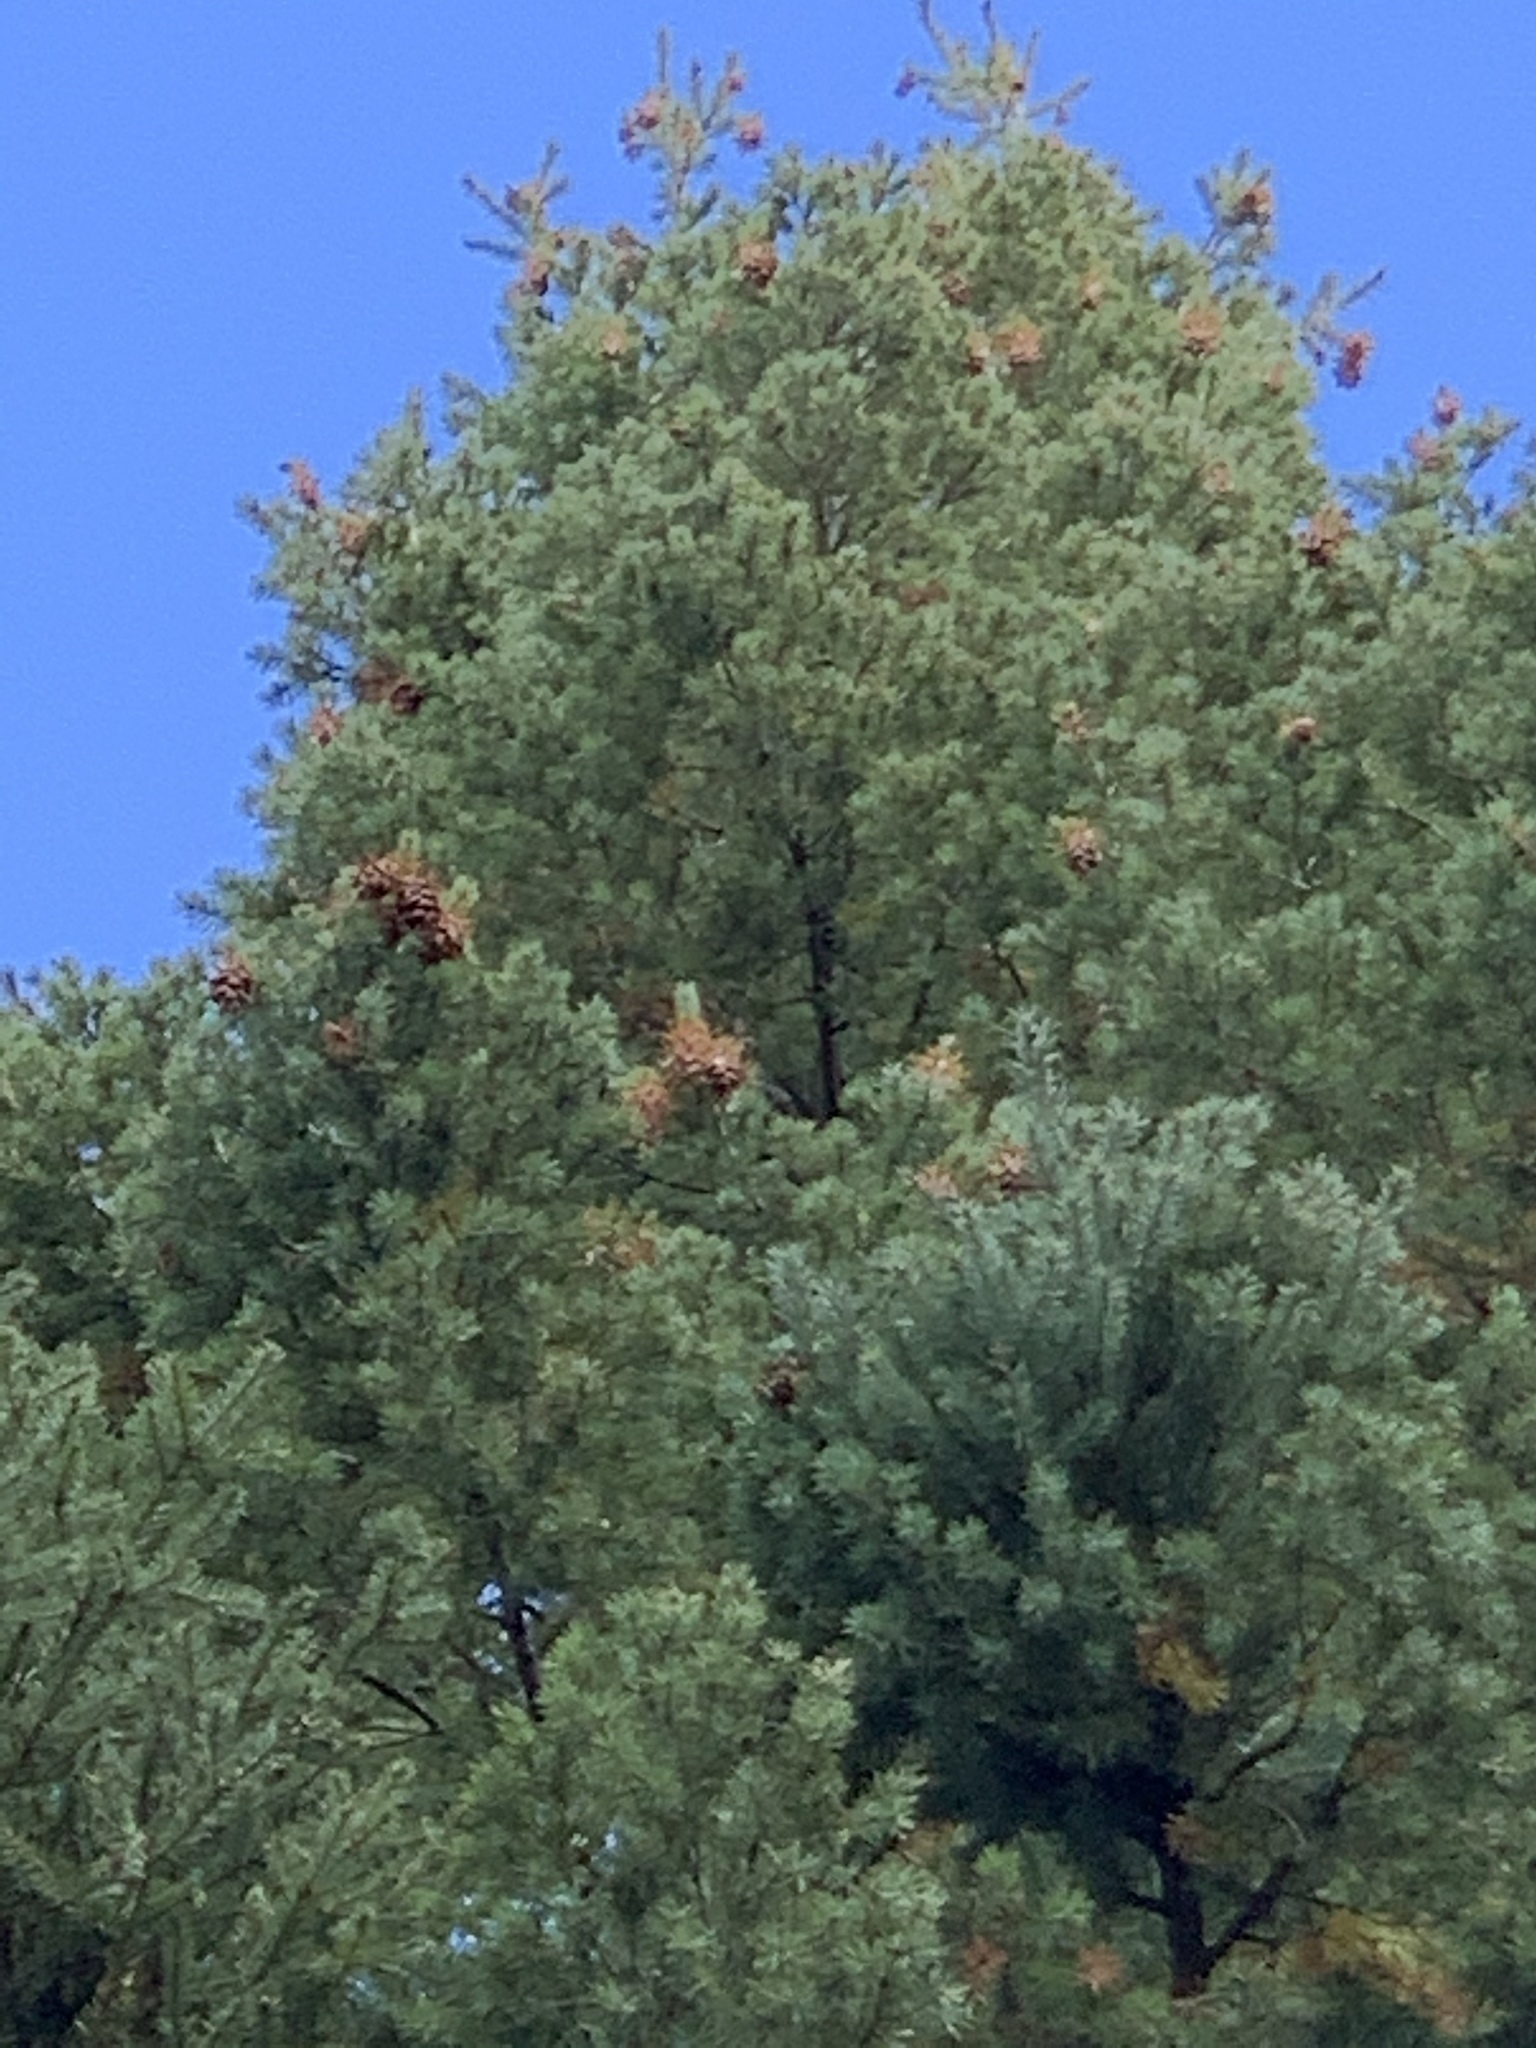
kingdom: Plantae
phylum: Tracheophyta
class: Pinopsida
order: Pinales
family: Pinaceae
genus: Pseudotsuga
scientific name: Pseudotsuga menziesii
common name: Douglas fir
